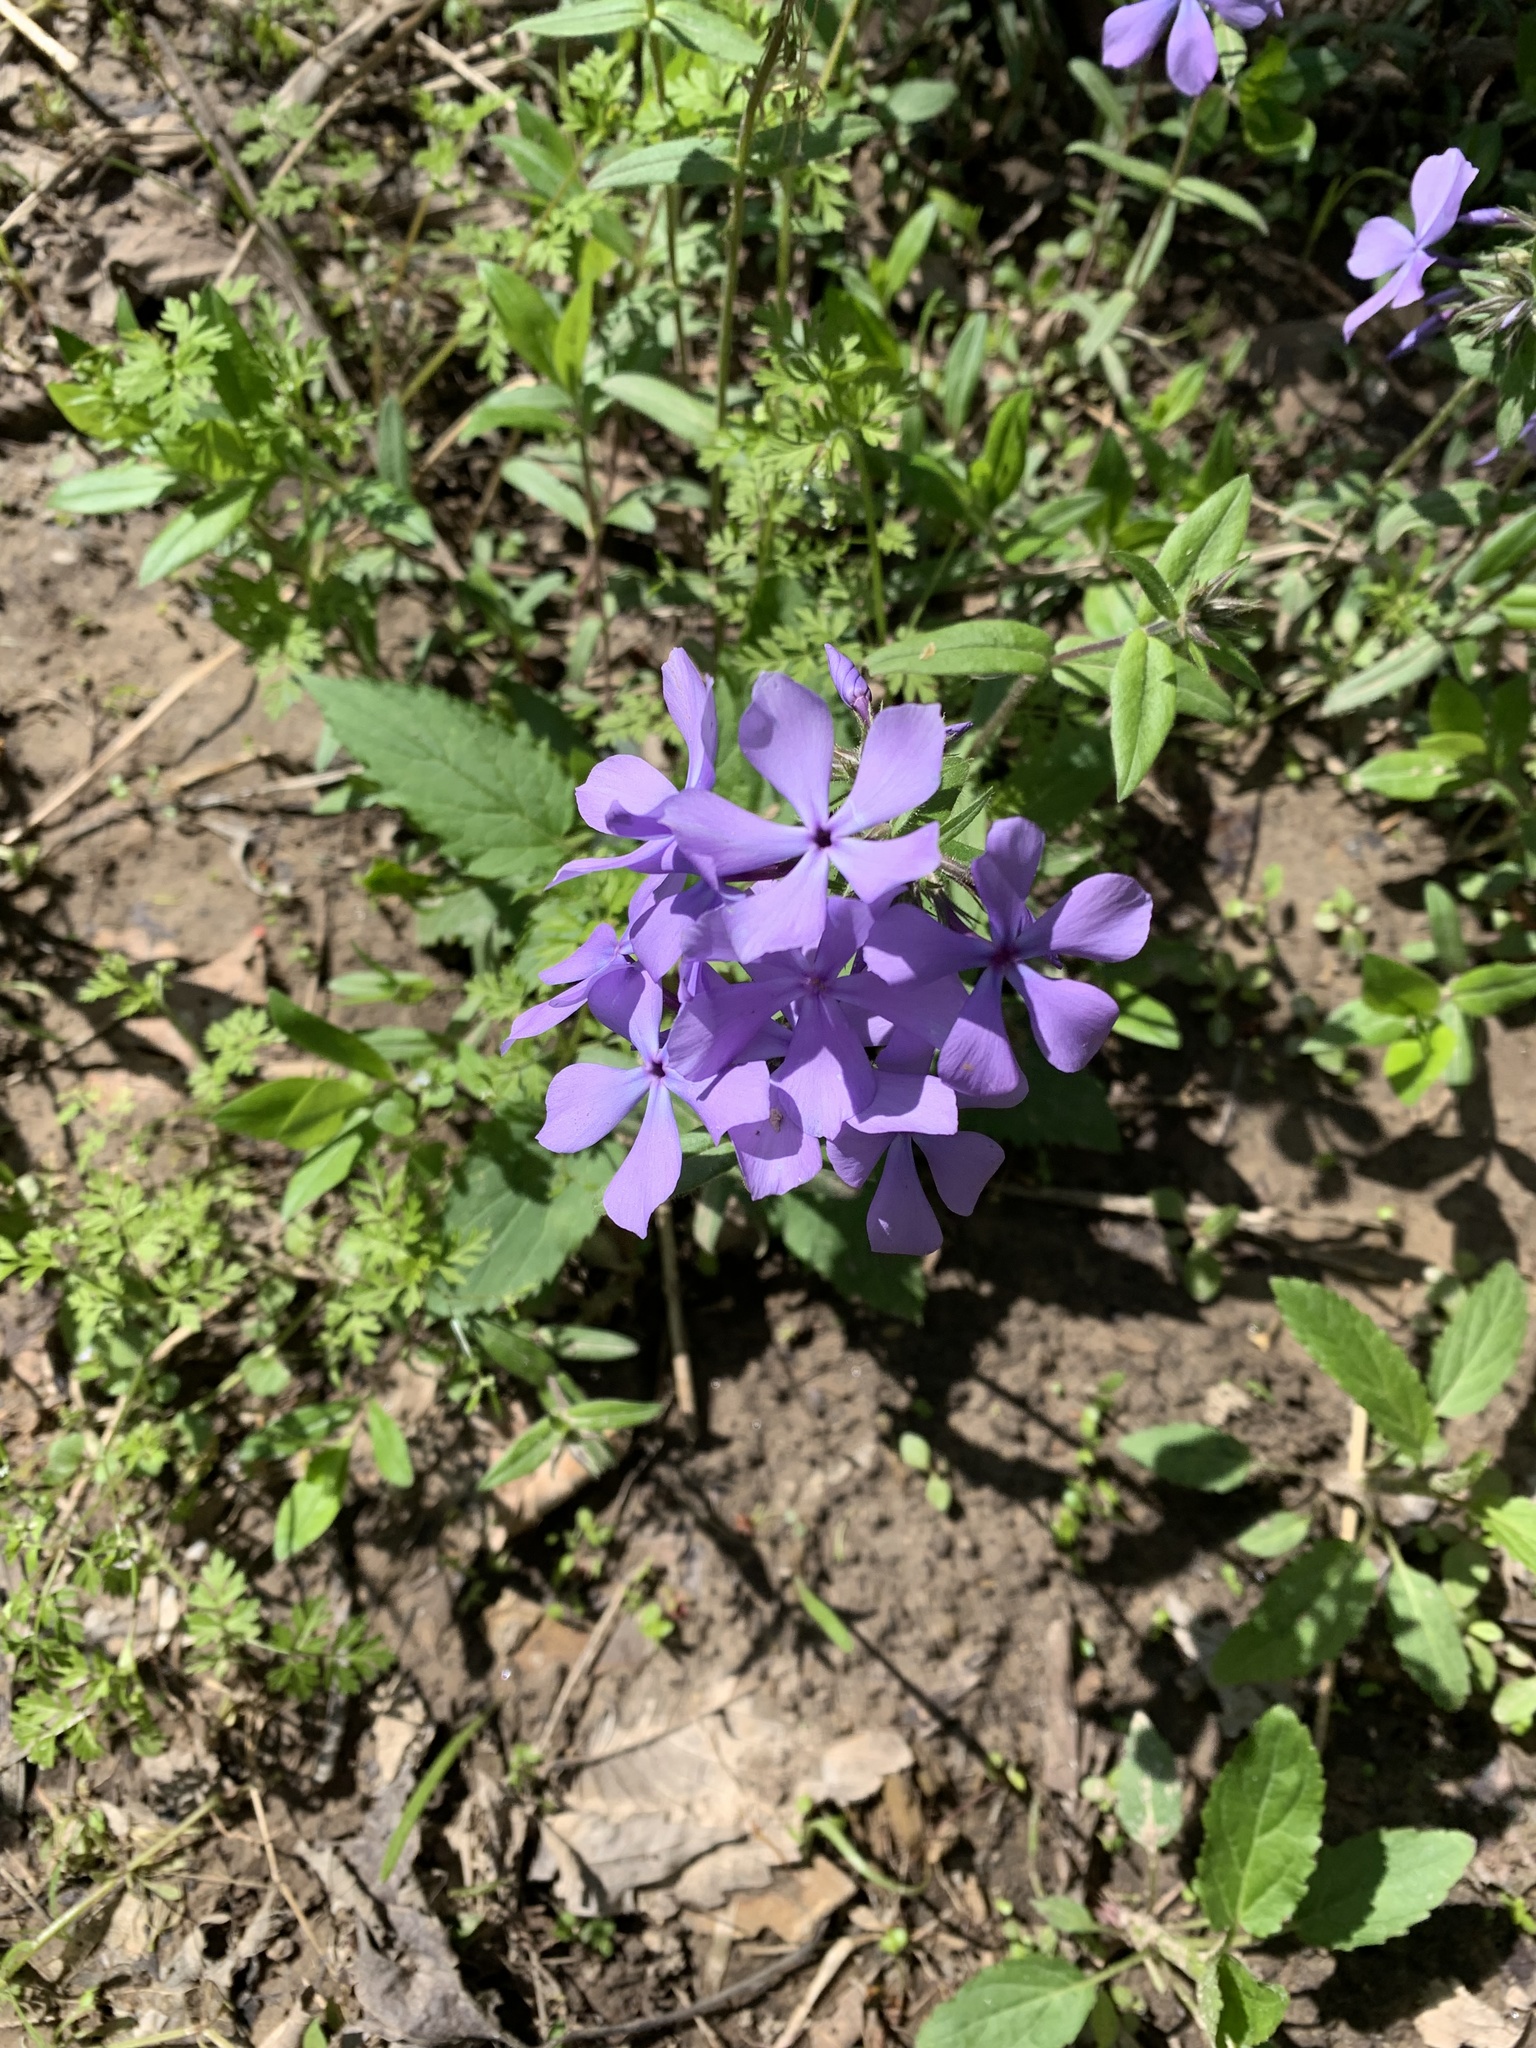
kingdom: Plantae
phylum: Tracheophyta
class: Magnoliopsida
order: Ericales
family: Polemoniaceae
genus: Phlox
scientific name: Phlox divaricata
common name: Blue phlox
